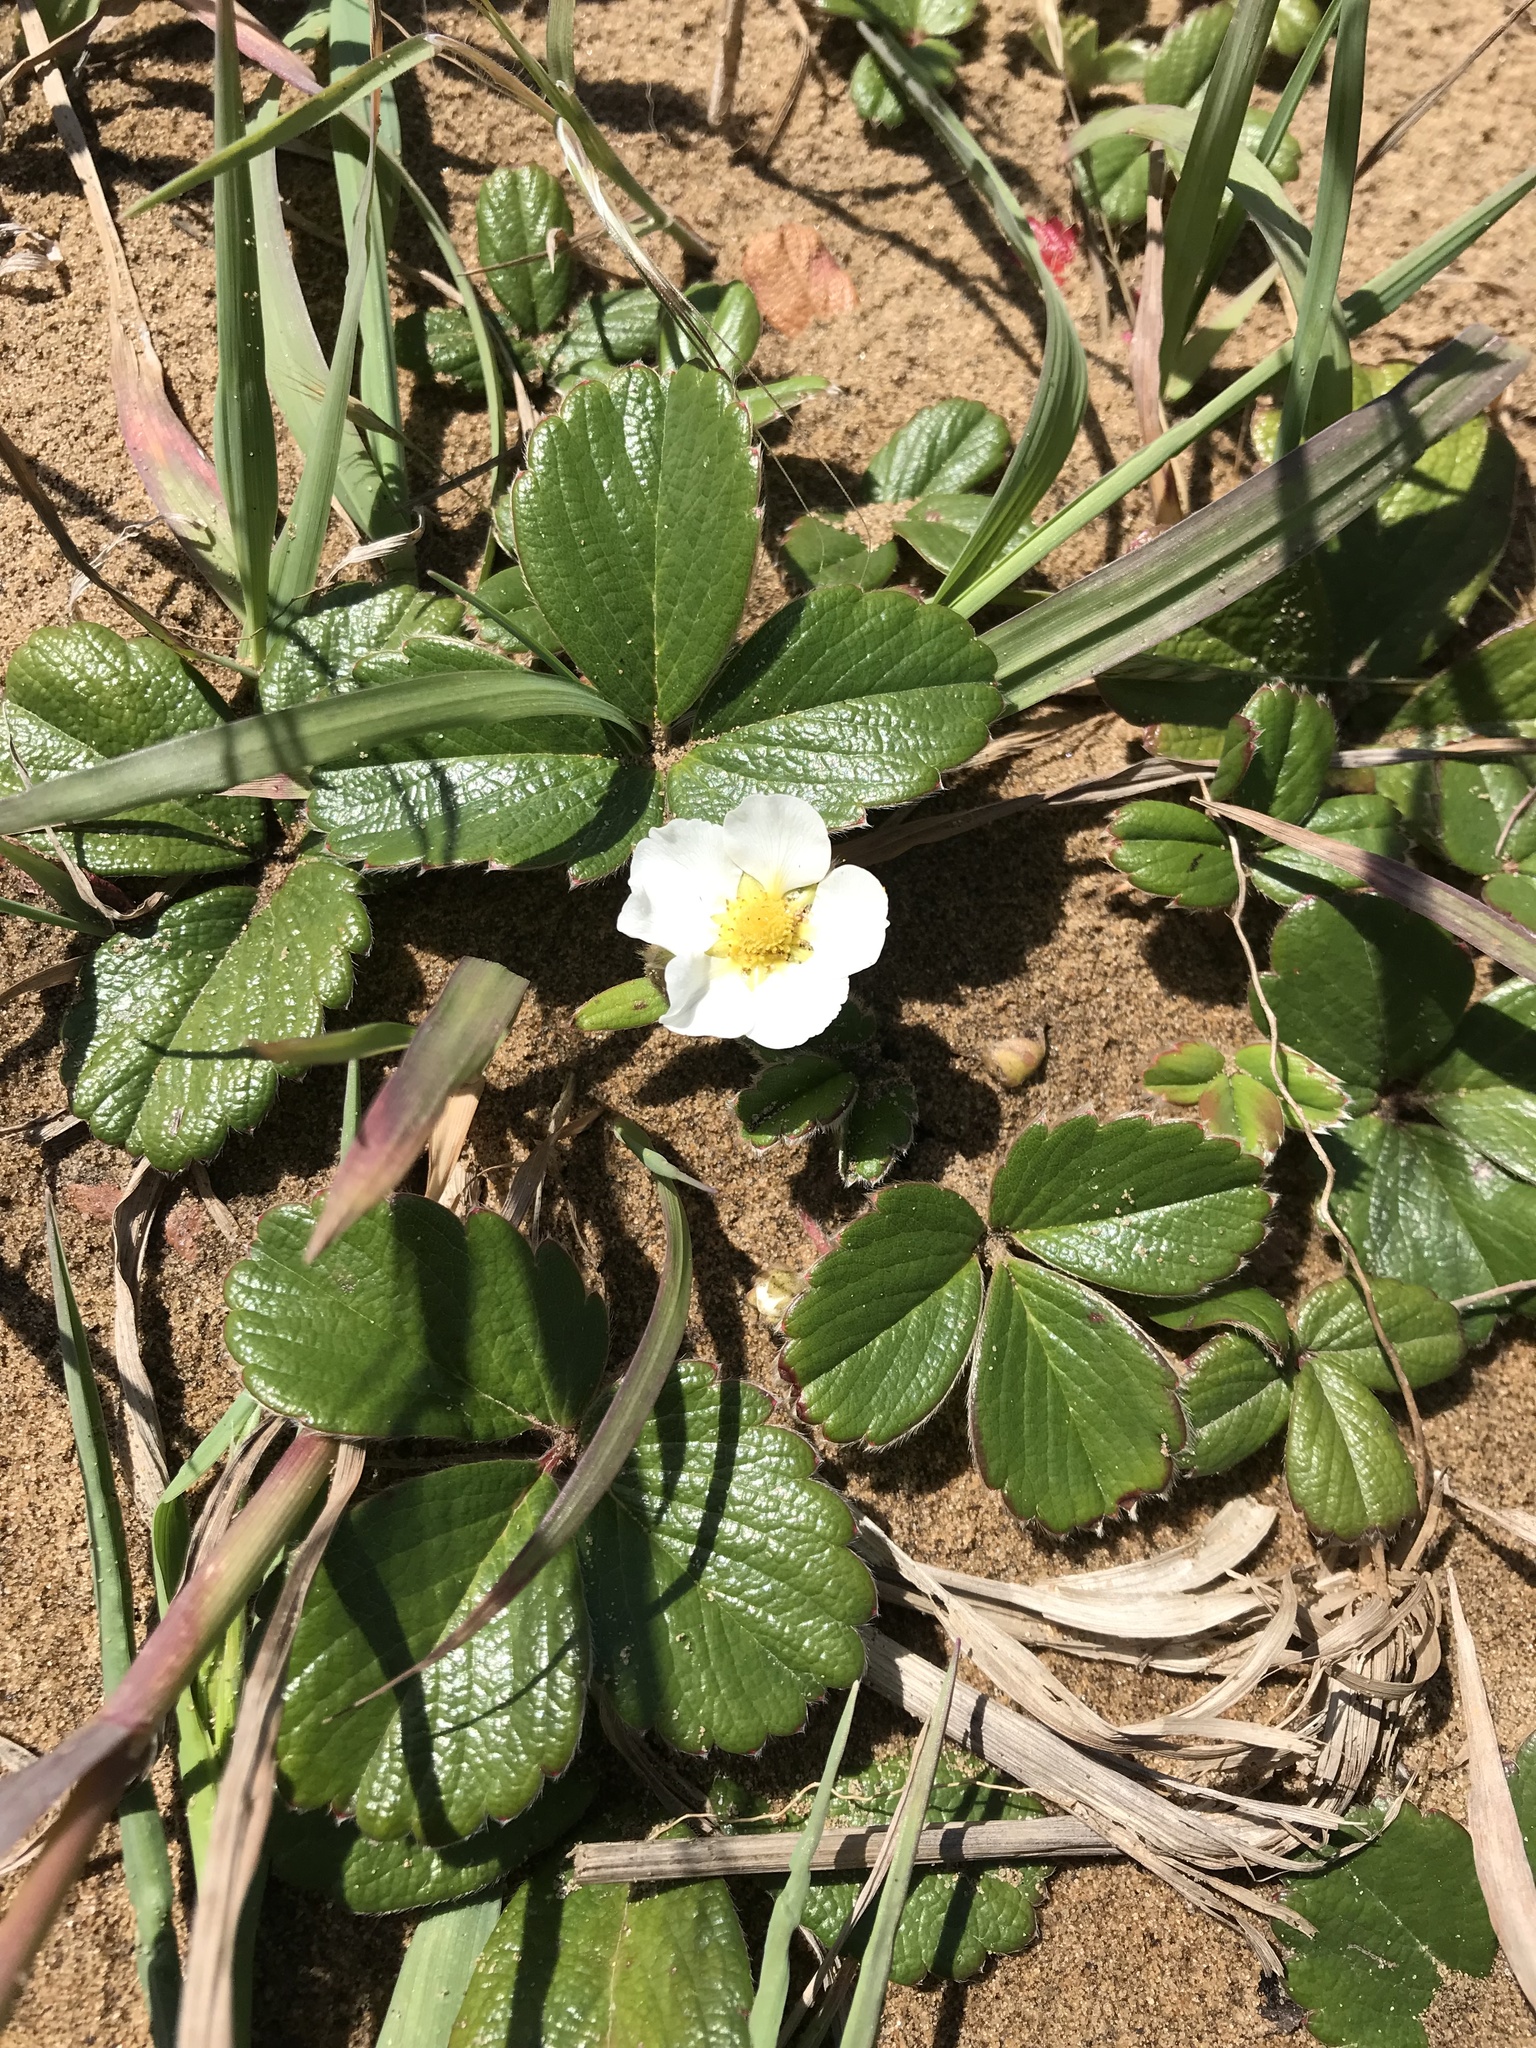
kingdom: Plantae
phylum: Tracheophyta
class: Magnoliopsida
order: Rosales
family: Rosaceae
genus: Fragaria
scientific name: Fragaria chiloensis
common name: Beach strawberry
